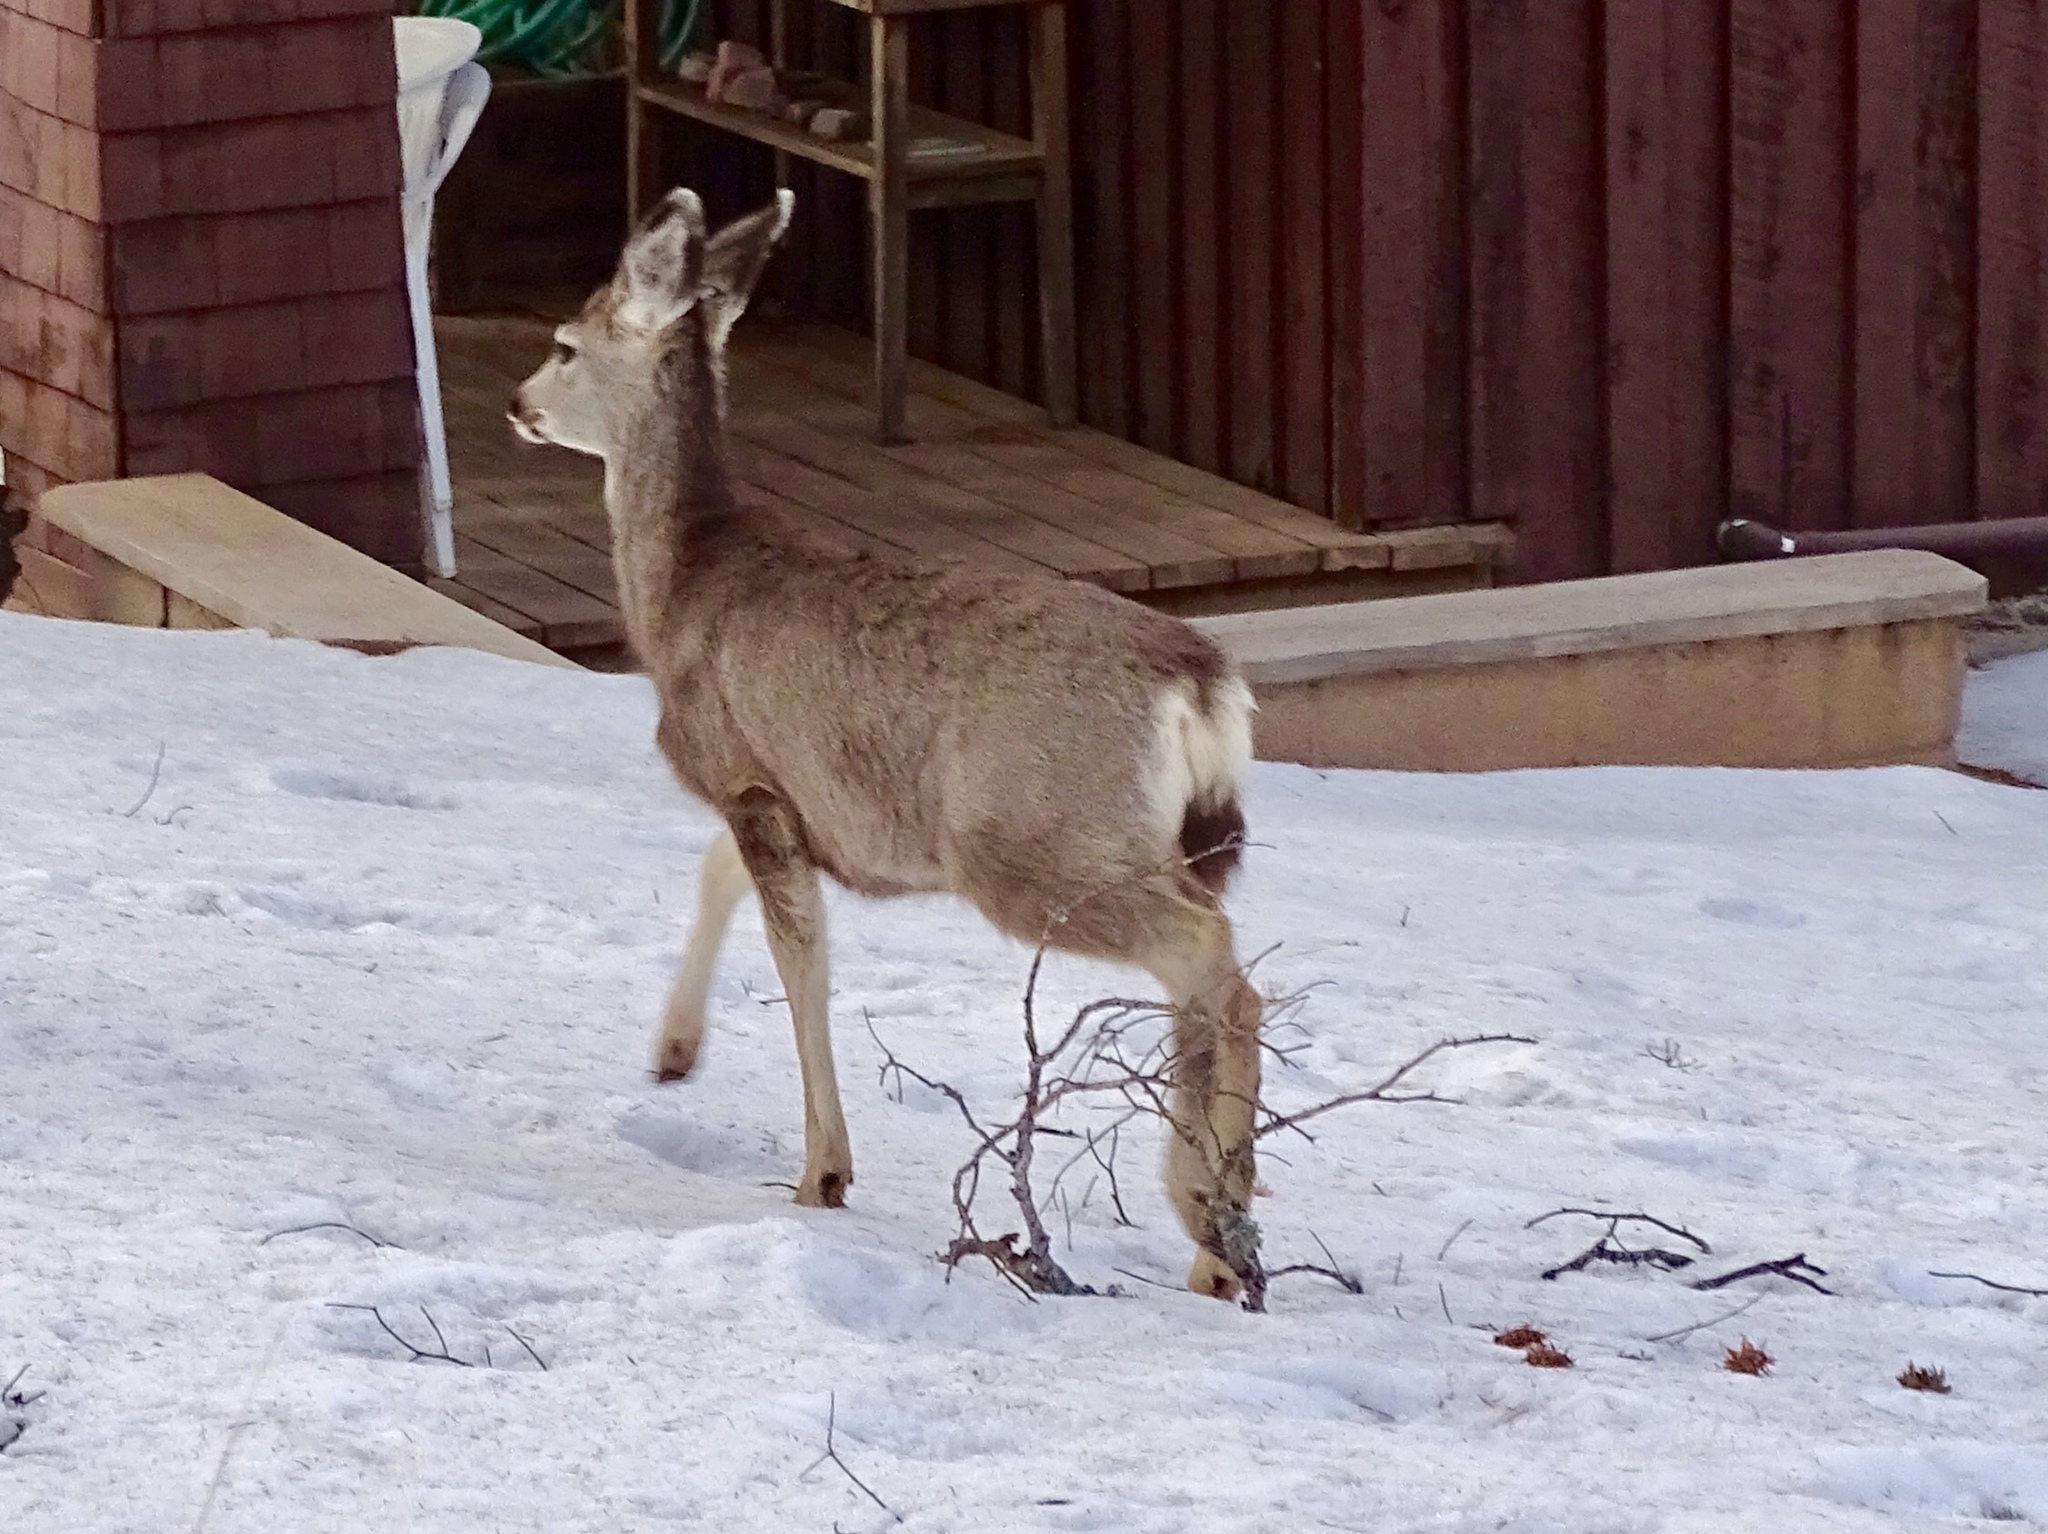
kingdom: Animalia
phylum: Chordata
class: Mammalia
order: Artiodactyla
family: Cervidae
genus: Odocoileus
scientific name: Odocoileus hemionus
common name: Mule deer
